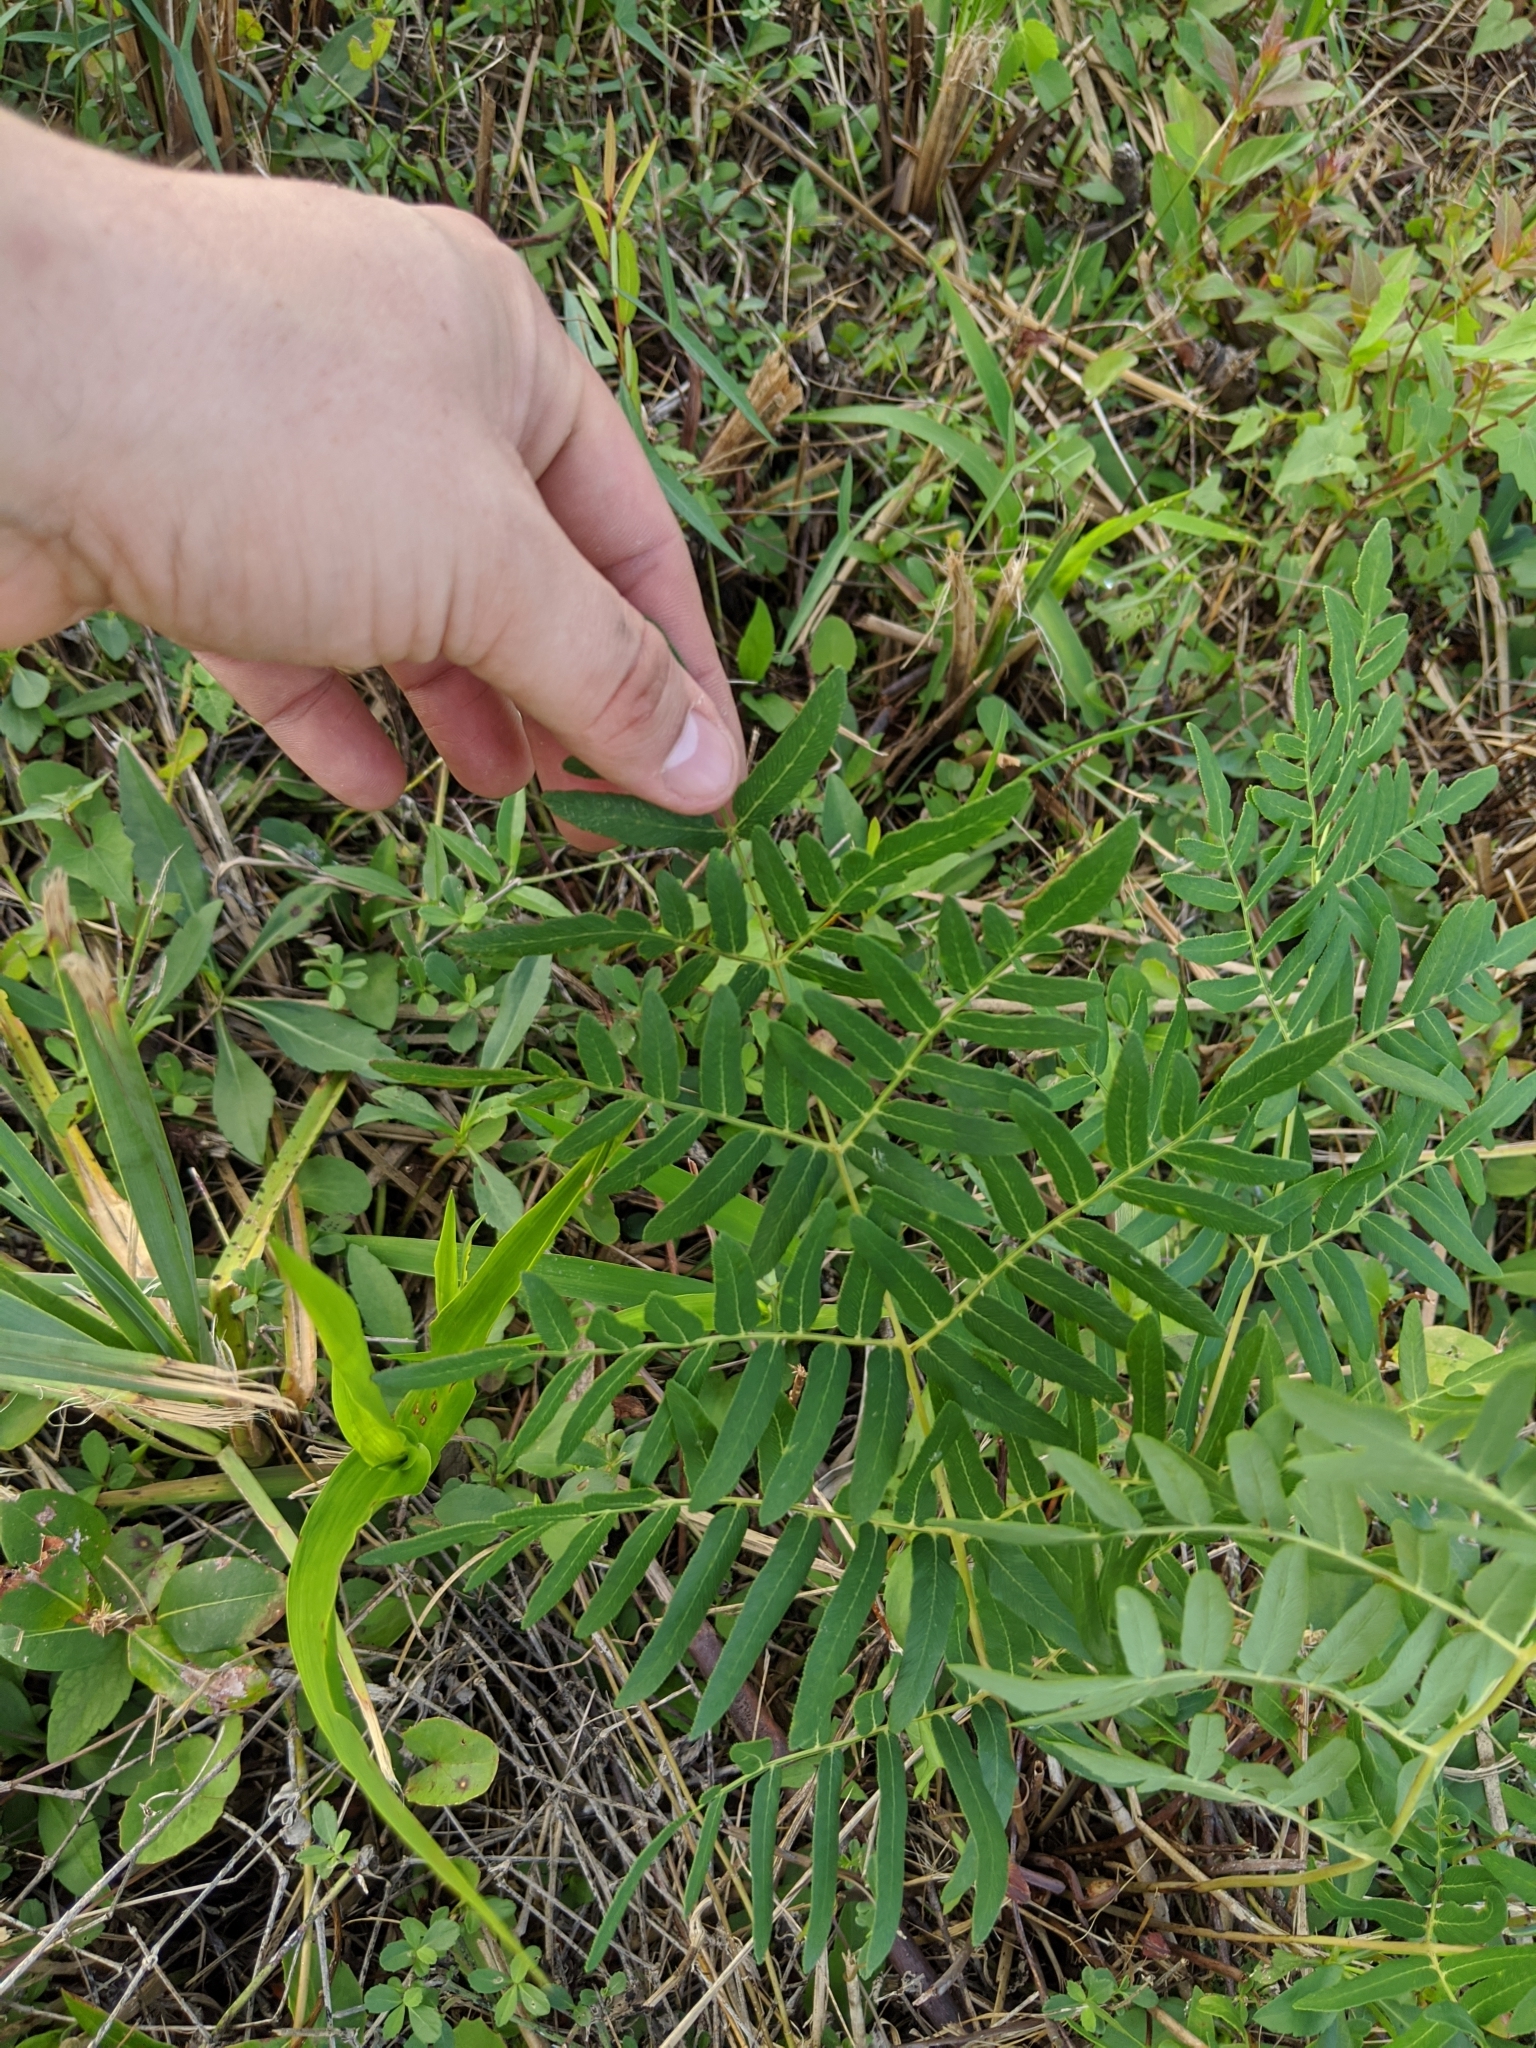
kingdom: Plantae
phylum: Tracheophyta
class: Polypodiopsida
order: Osmundales
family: Osmundaceae
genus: Osmunda
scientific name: Osmunda spectabilis
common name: American royal fern
